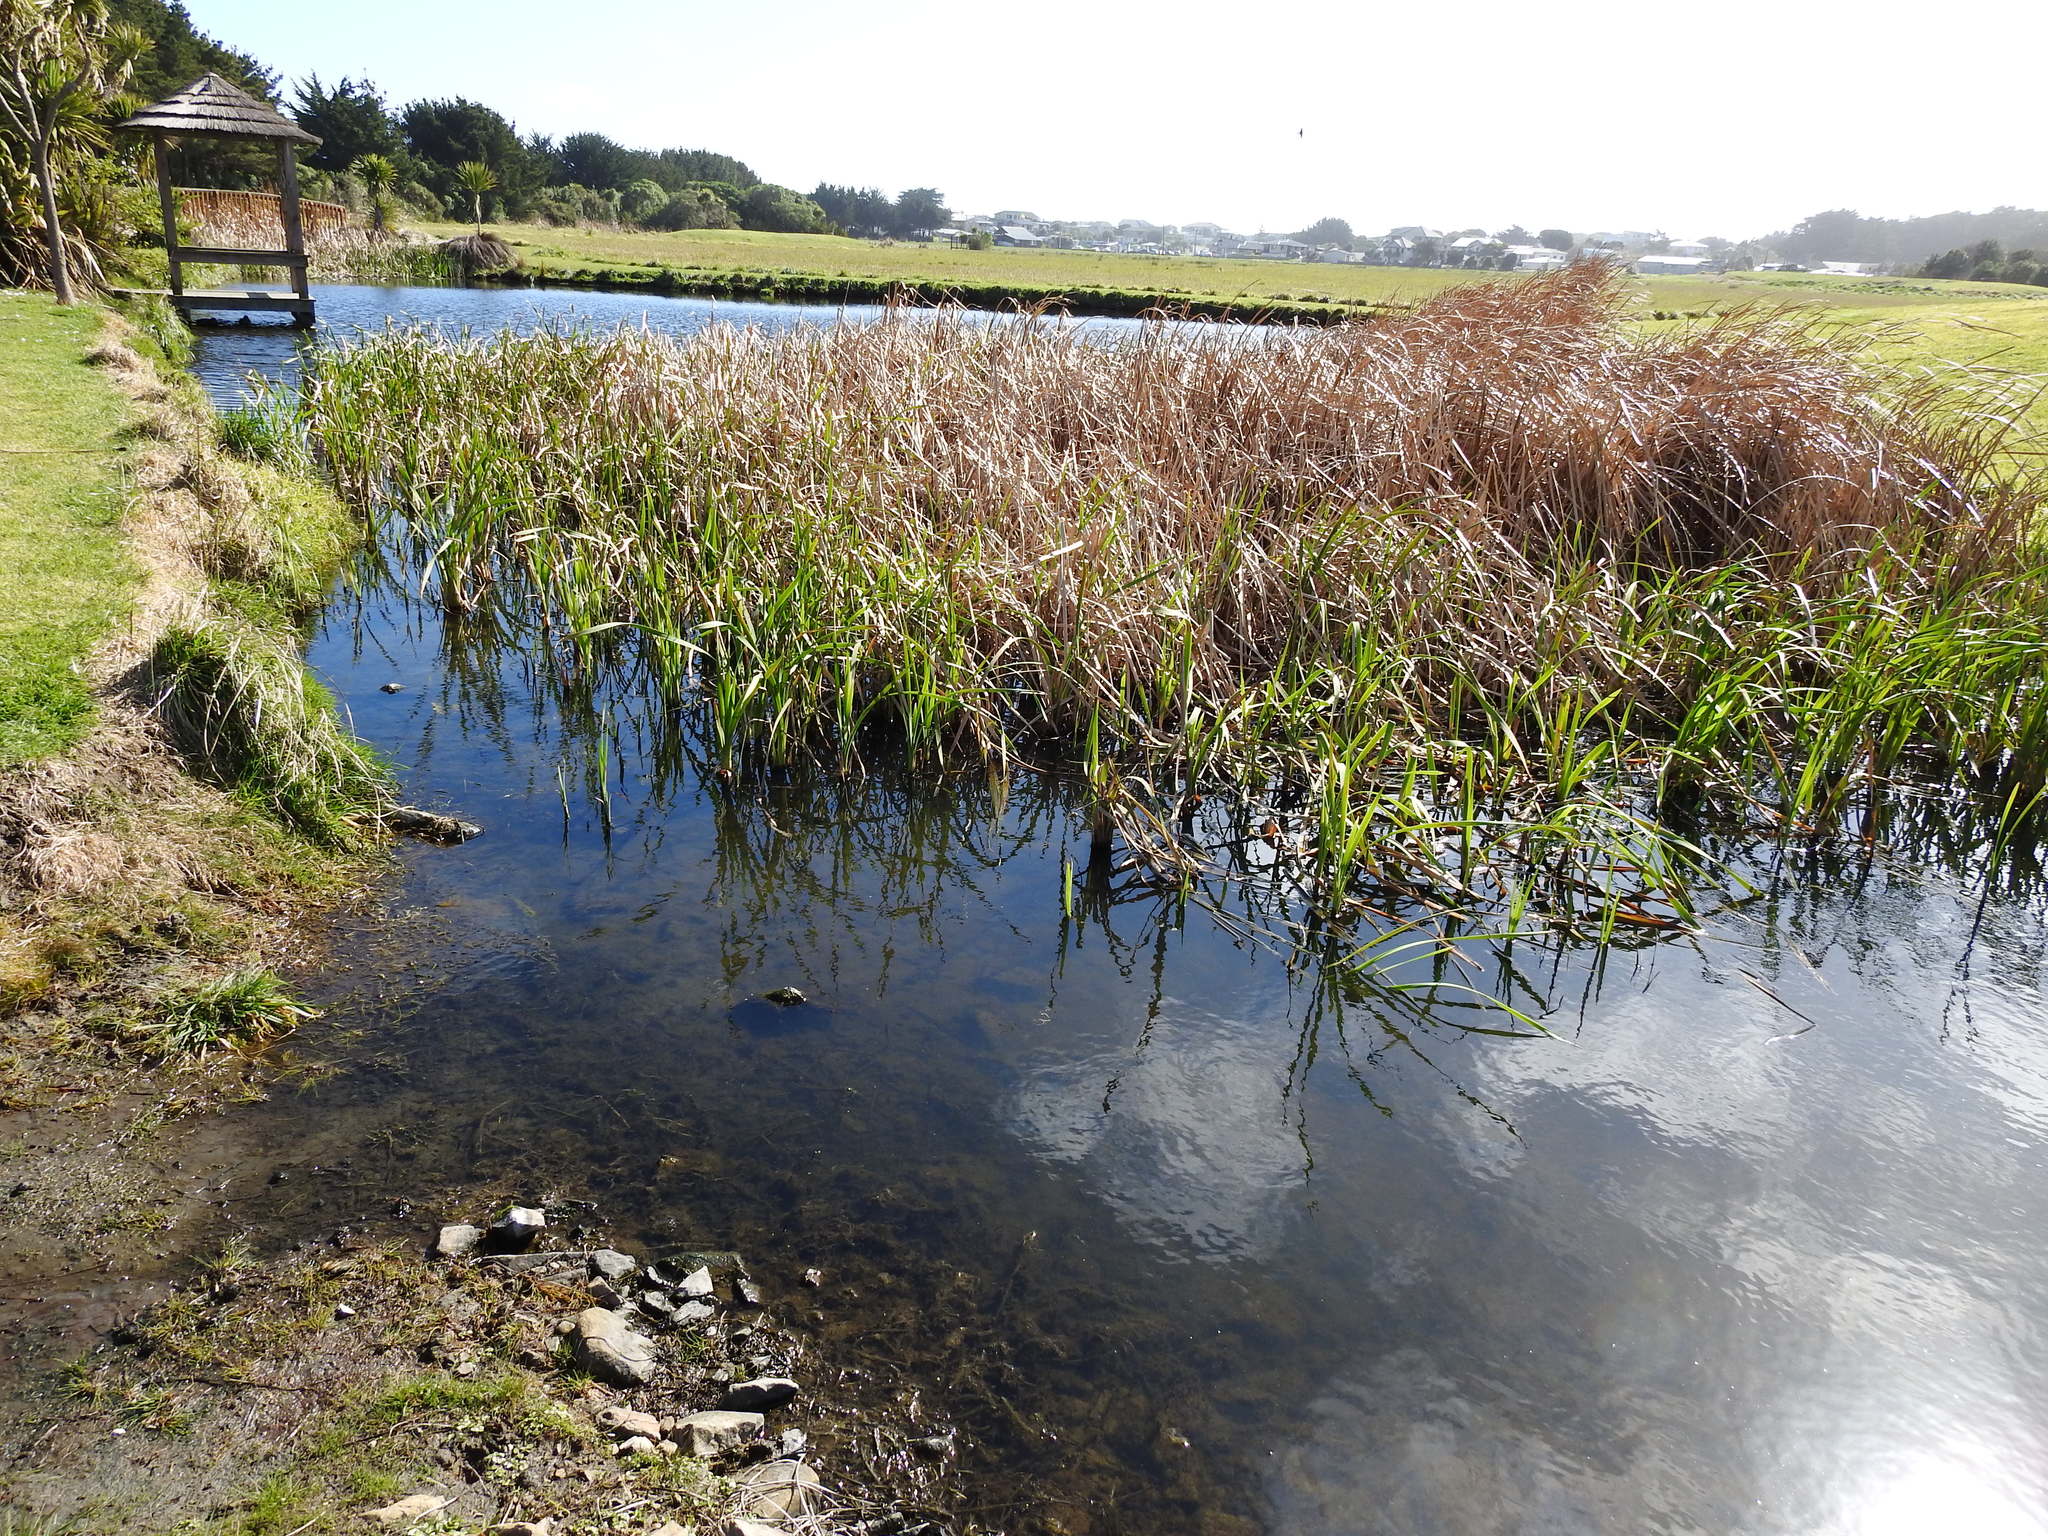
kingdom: Plantae
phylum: Tracheophyta
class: Liliopsida
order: Poales
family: Typhaceae
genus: Typha
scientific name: Typha orientalis
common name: Bullrush
